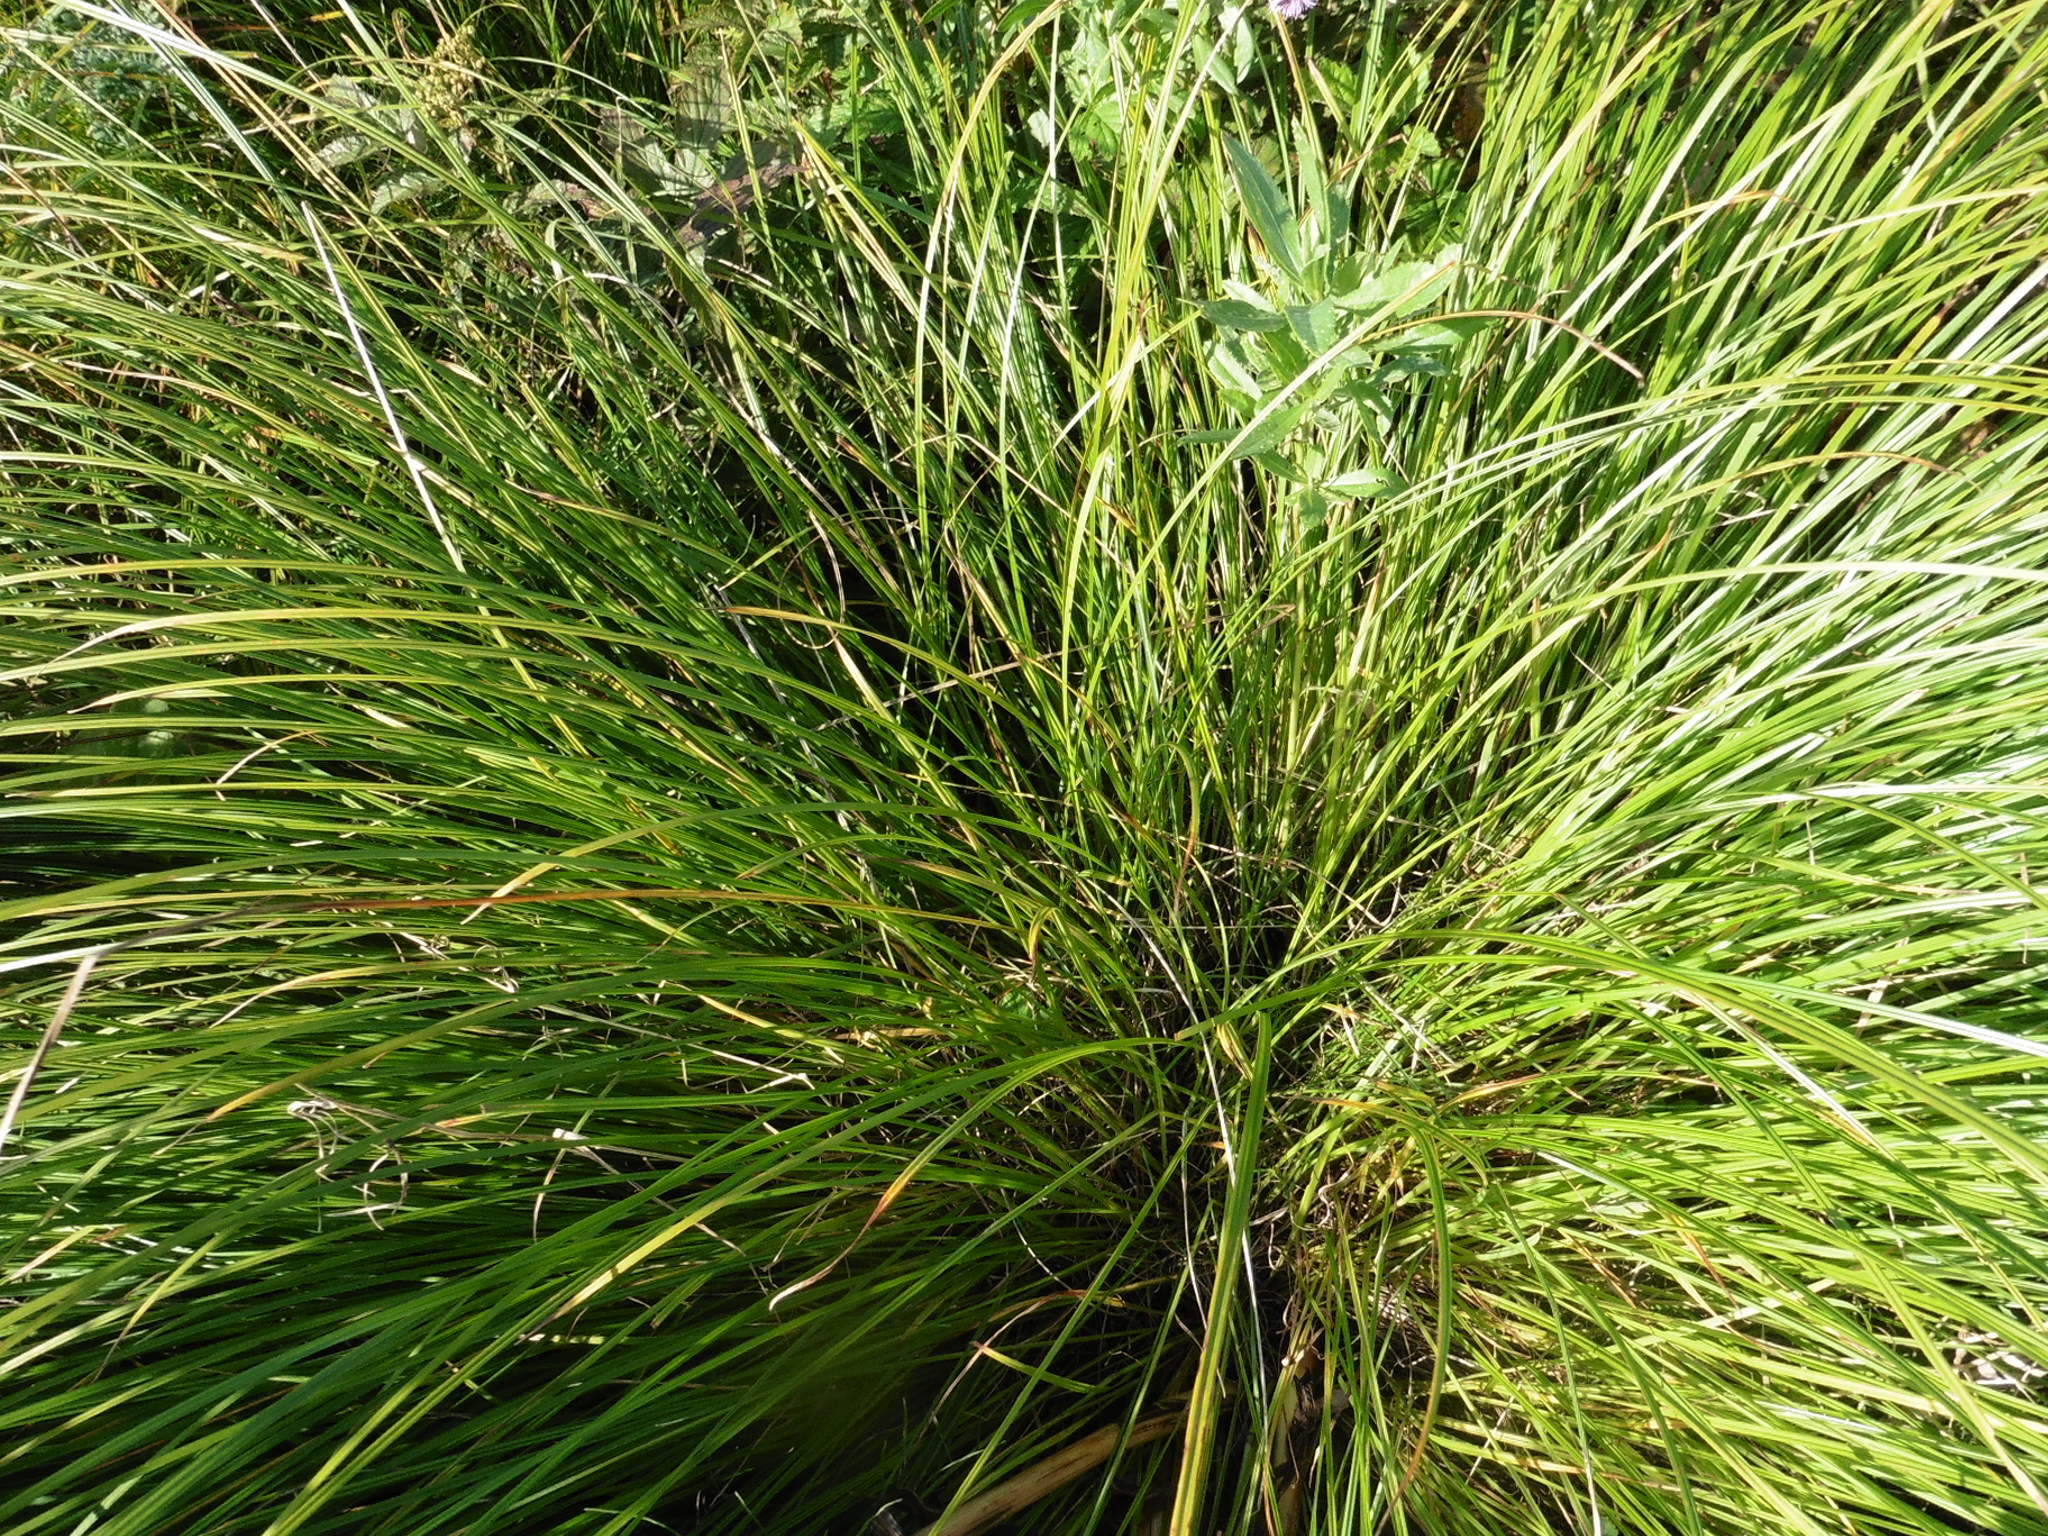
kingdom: Plantae
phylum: Tracheophyta
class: Liliopsida
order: Poales
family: Cyperaceae
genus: Carex
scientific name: Carex cespitosa
